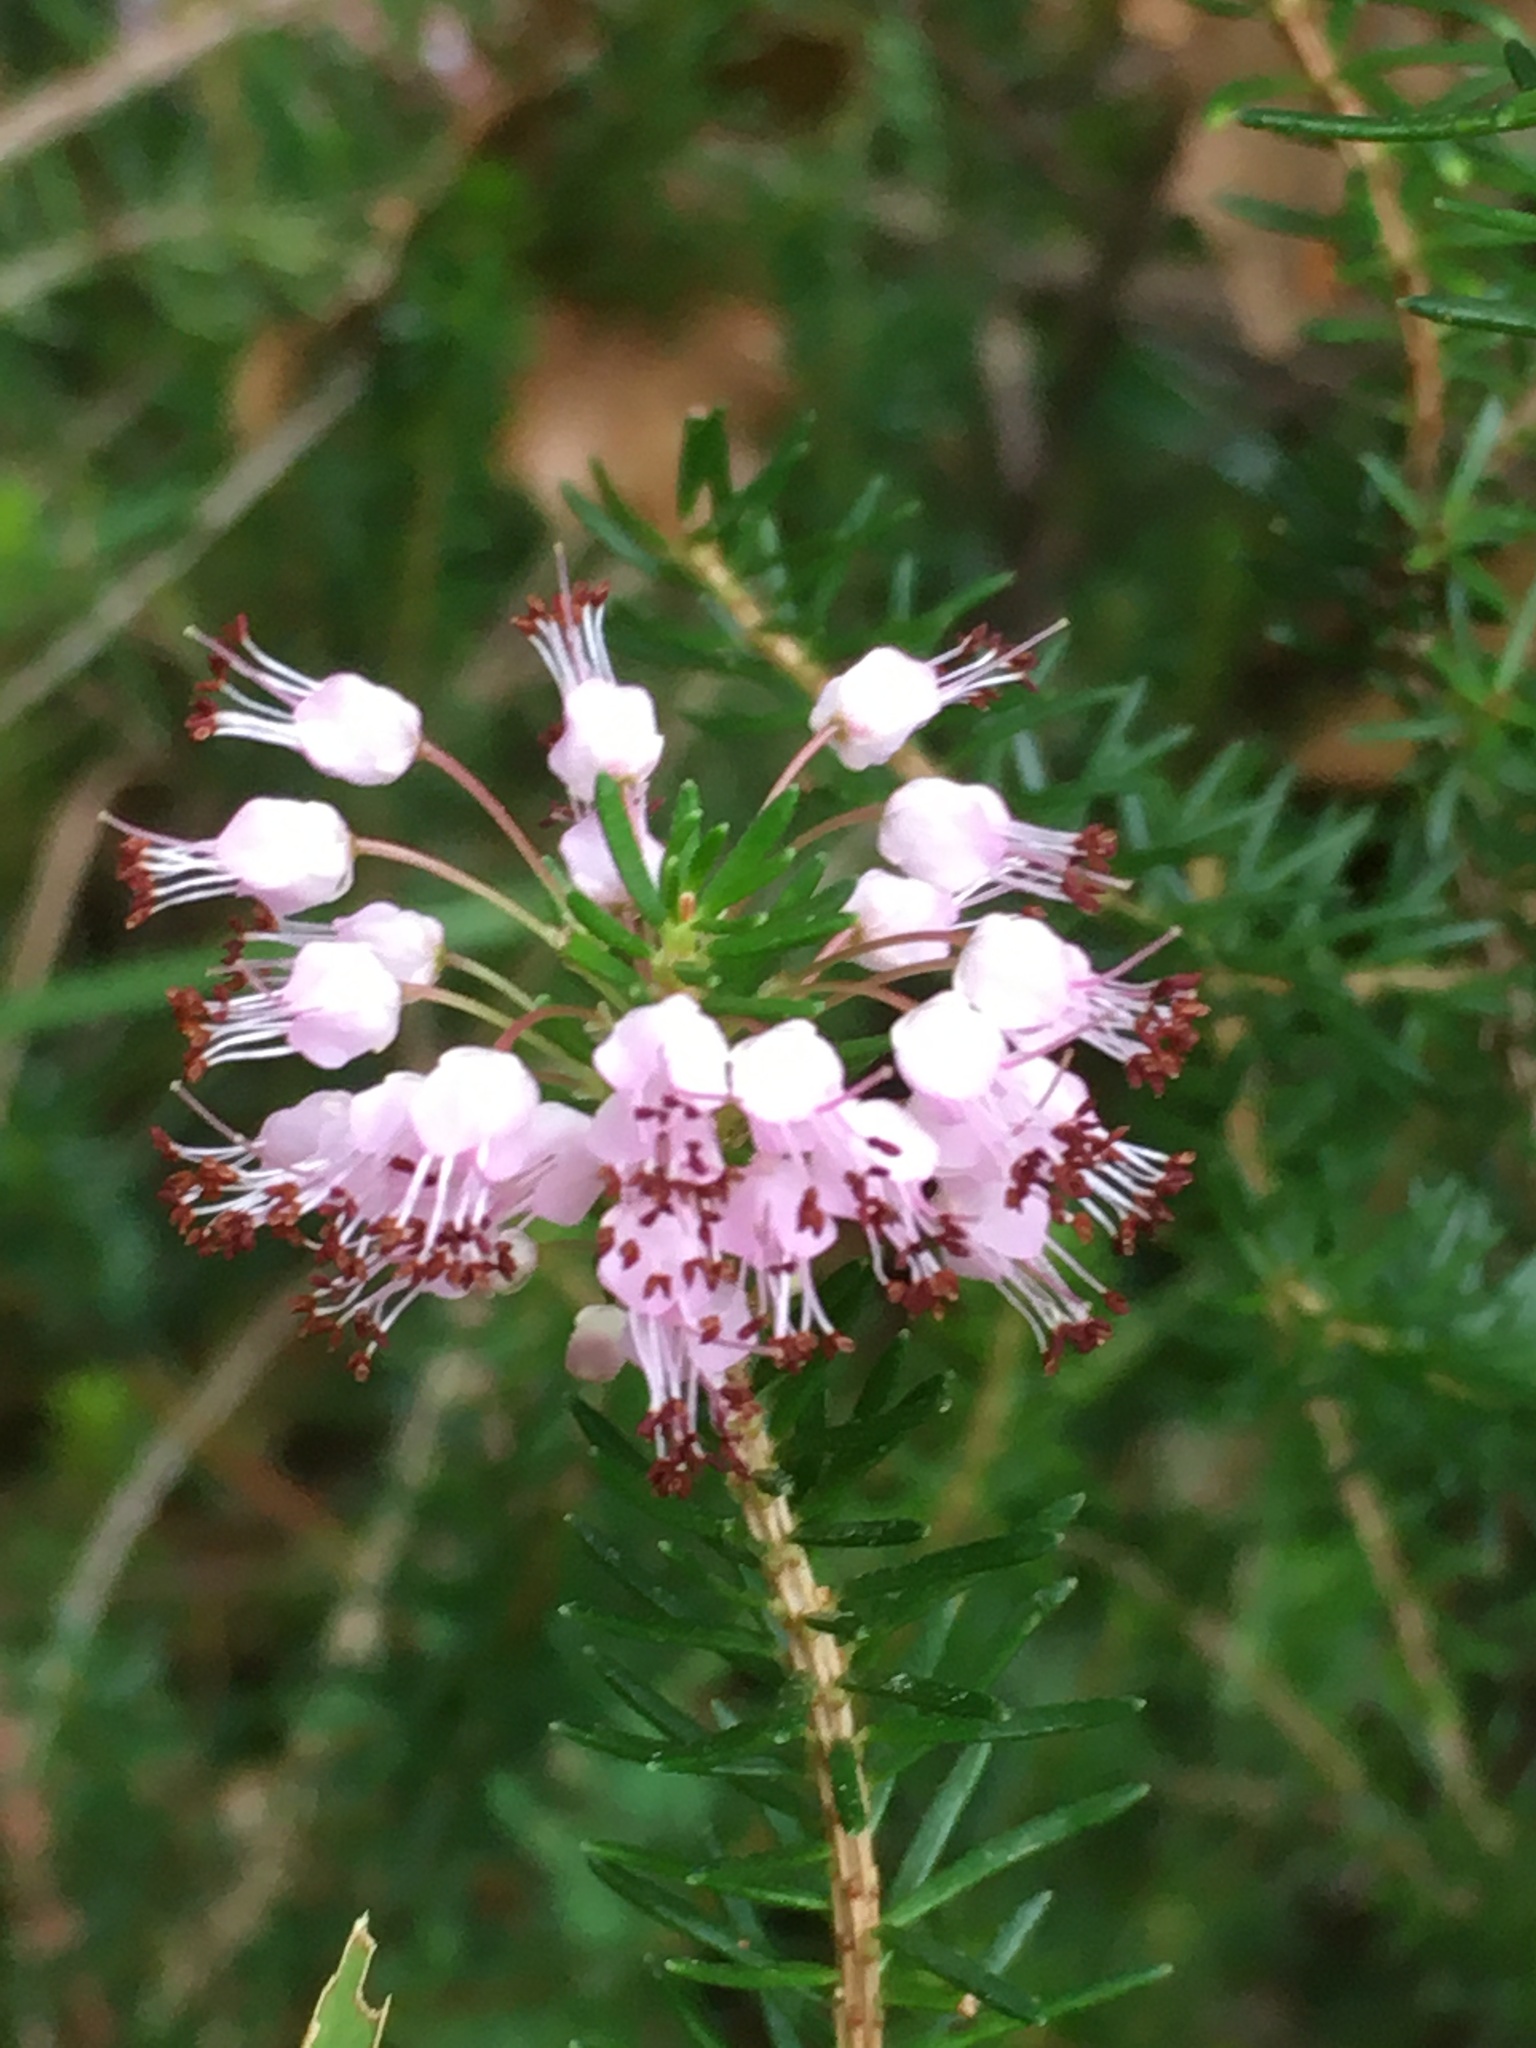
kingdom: Plantae
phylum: Tracheophyta
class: Magnoliopsida
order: Ericales
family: Ericaceae
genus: Erica
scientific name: Erica vagans
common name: Cornish heath
